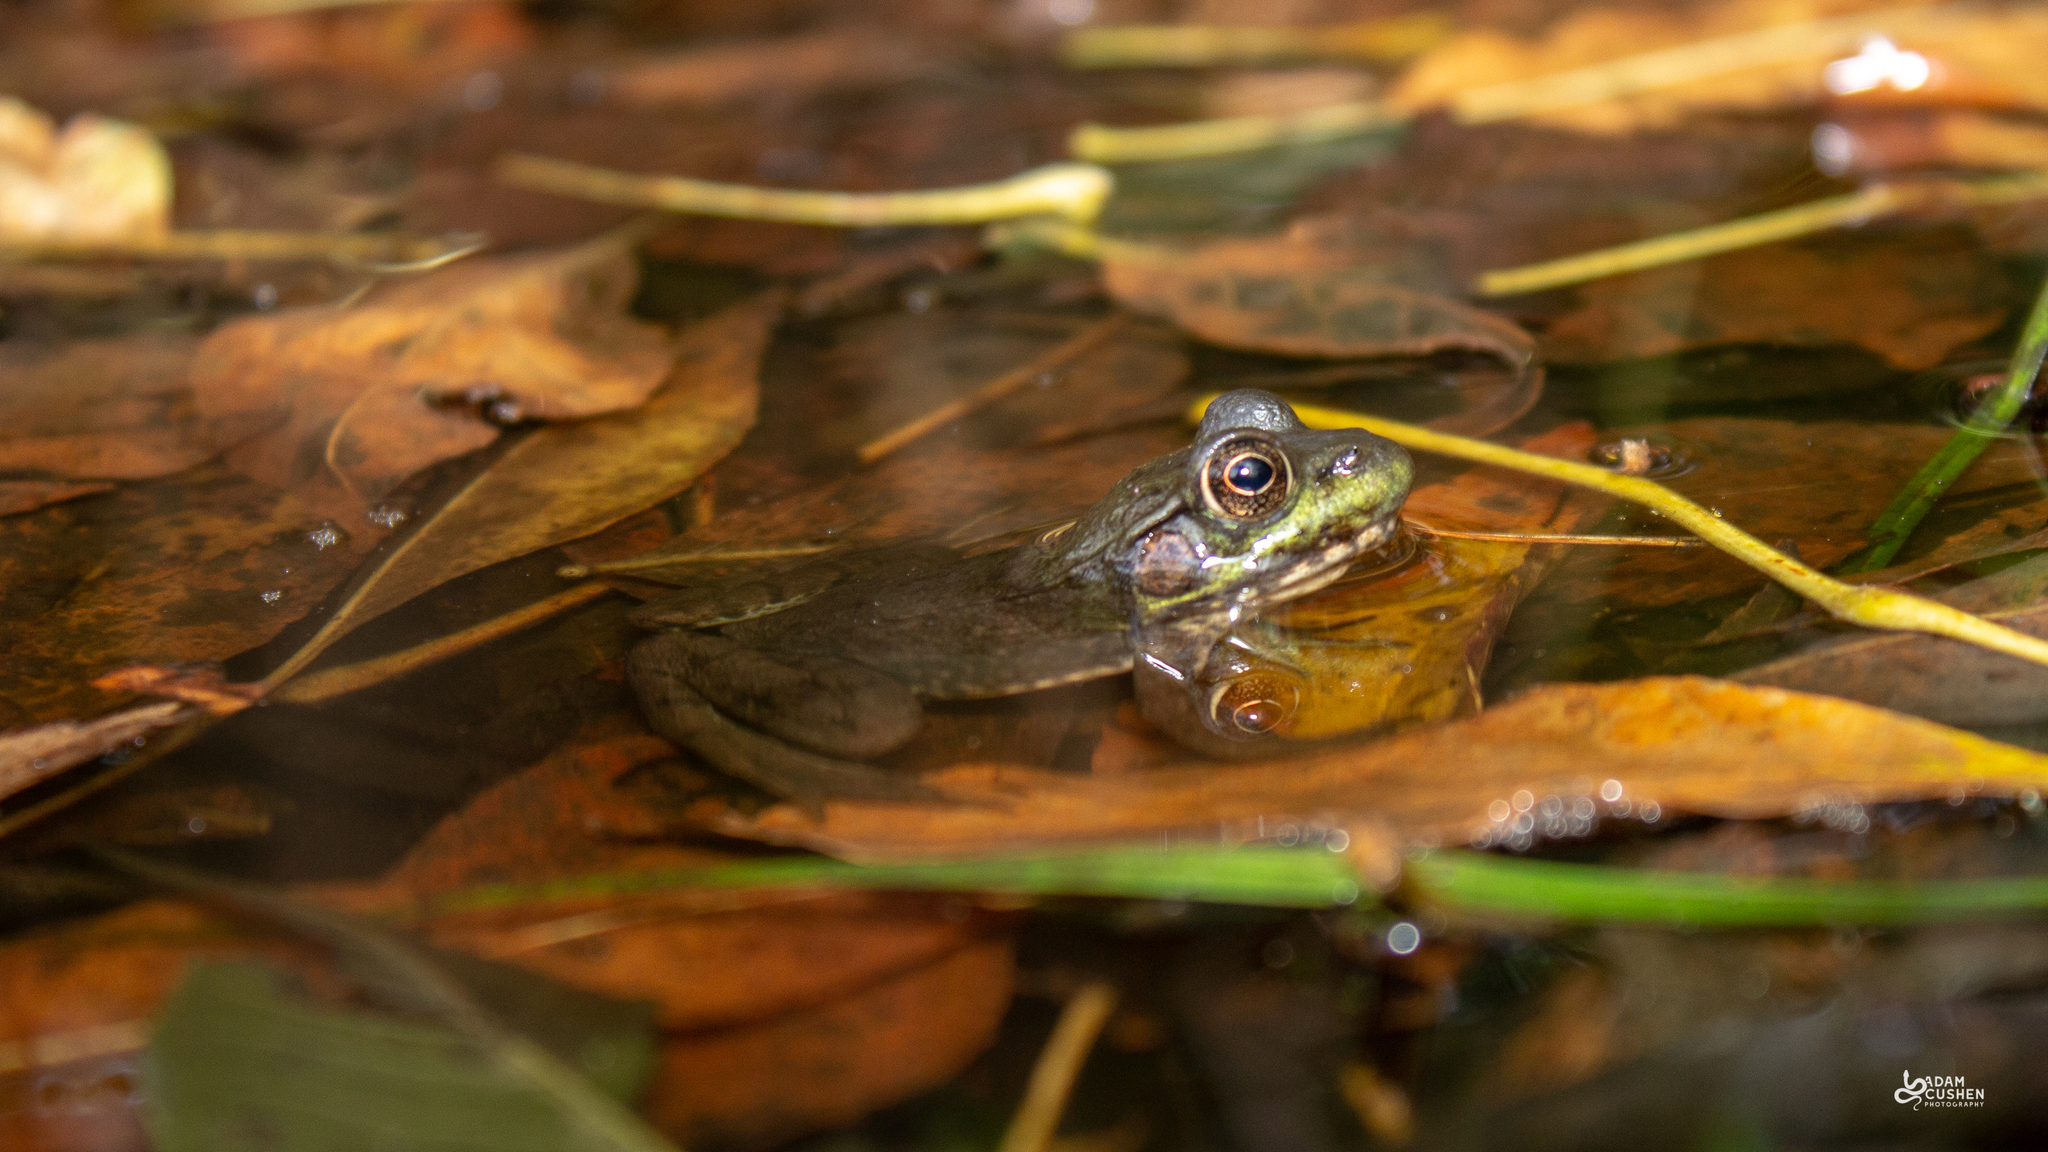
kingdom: Animalia
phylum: Chordata
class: Amphibia
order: Anura
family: Ranidae
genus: Lithobates
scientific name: Lithobates clamitans
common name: Green frog
